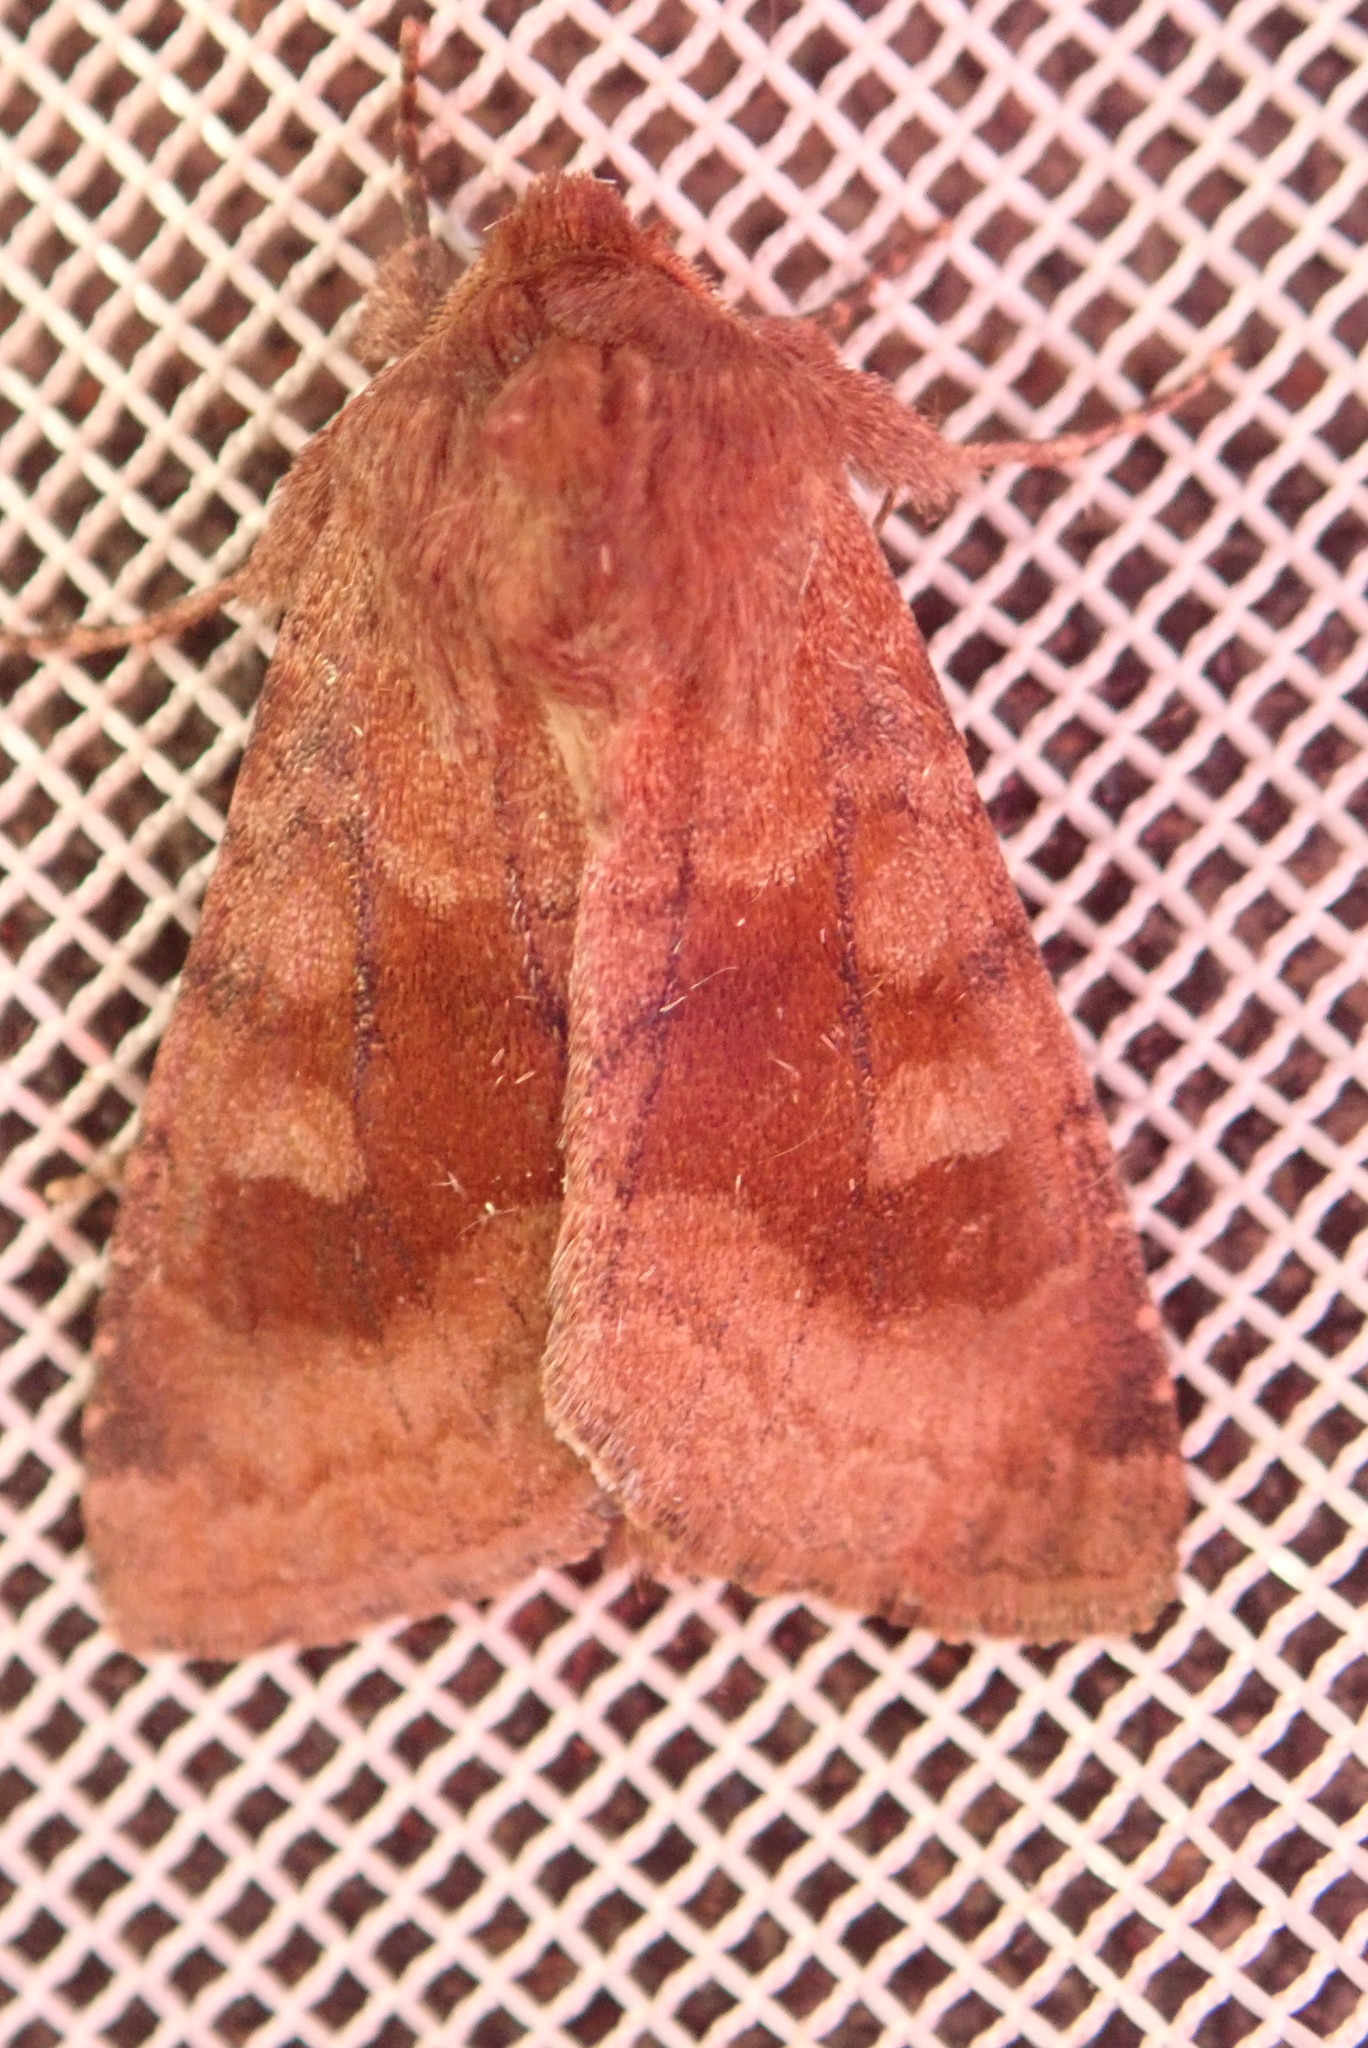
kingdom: Animalia
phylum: Arthropoda
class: Insecta
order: Lepidoptera
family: Noctuidae
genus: Nephelodes
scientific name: Nephelodes minians
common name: Bronzed cutworm
